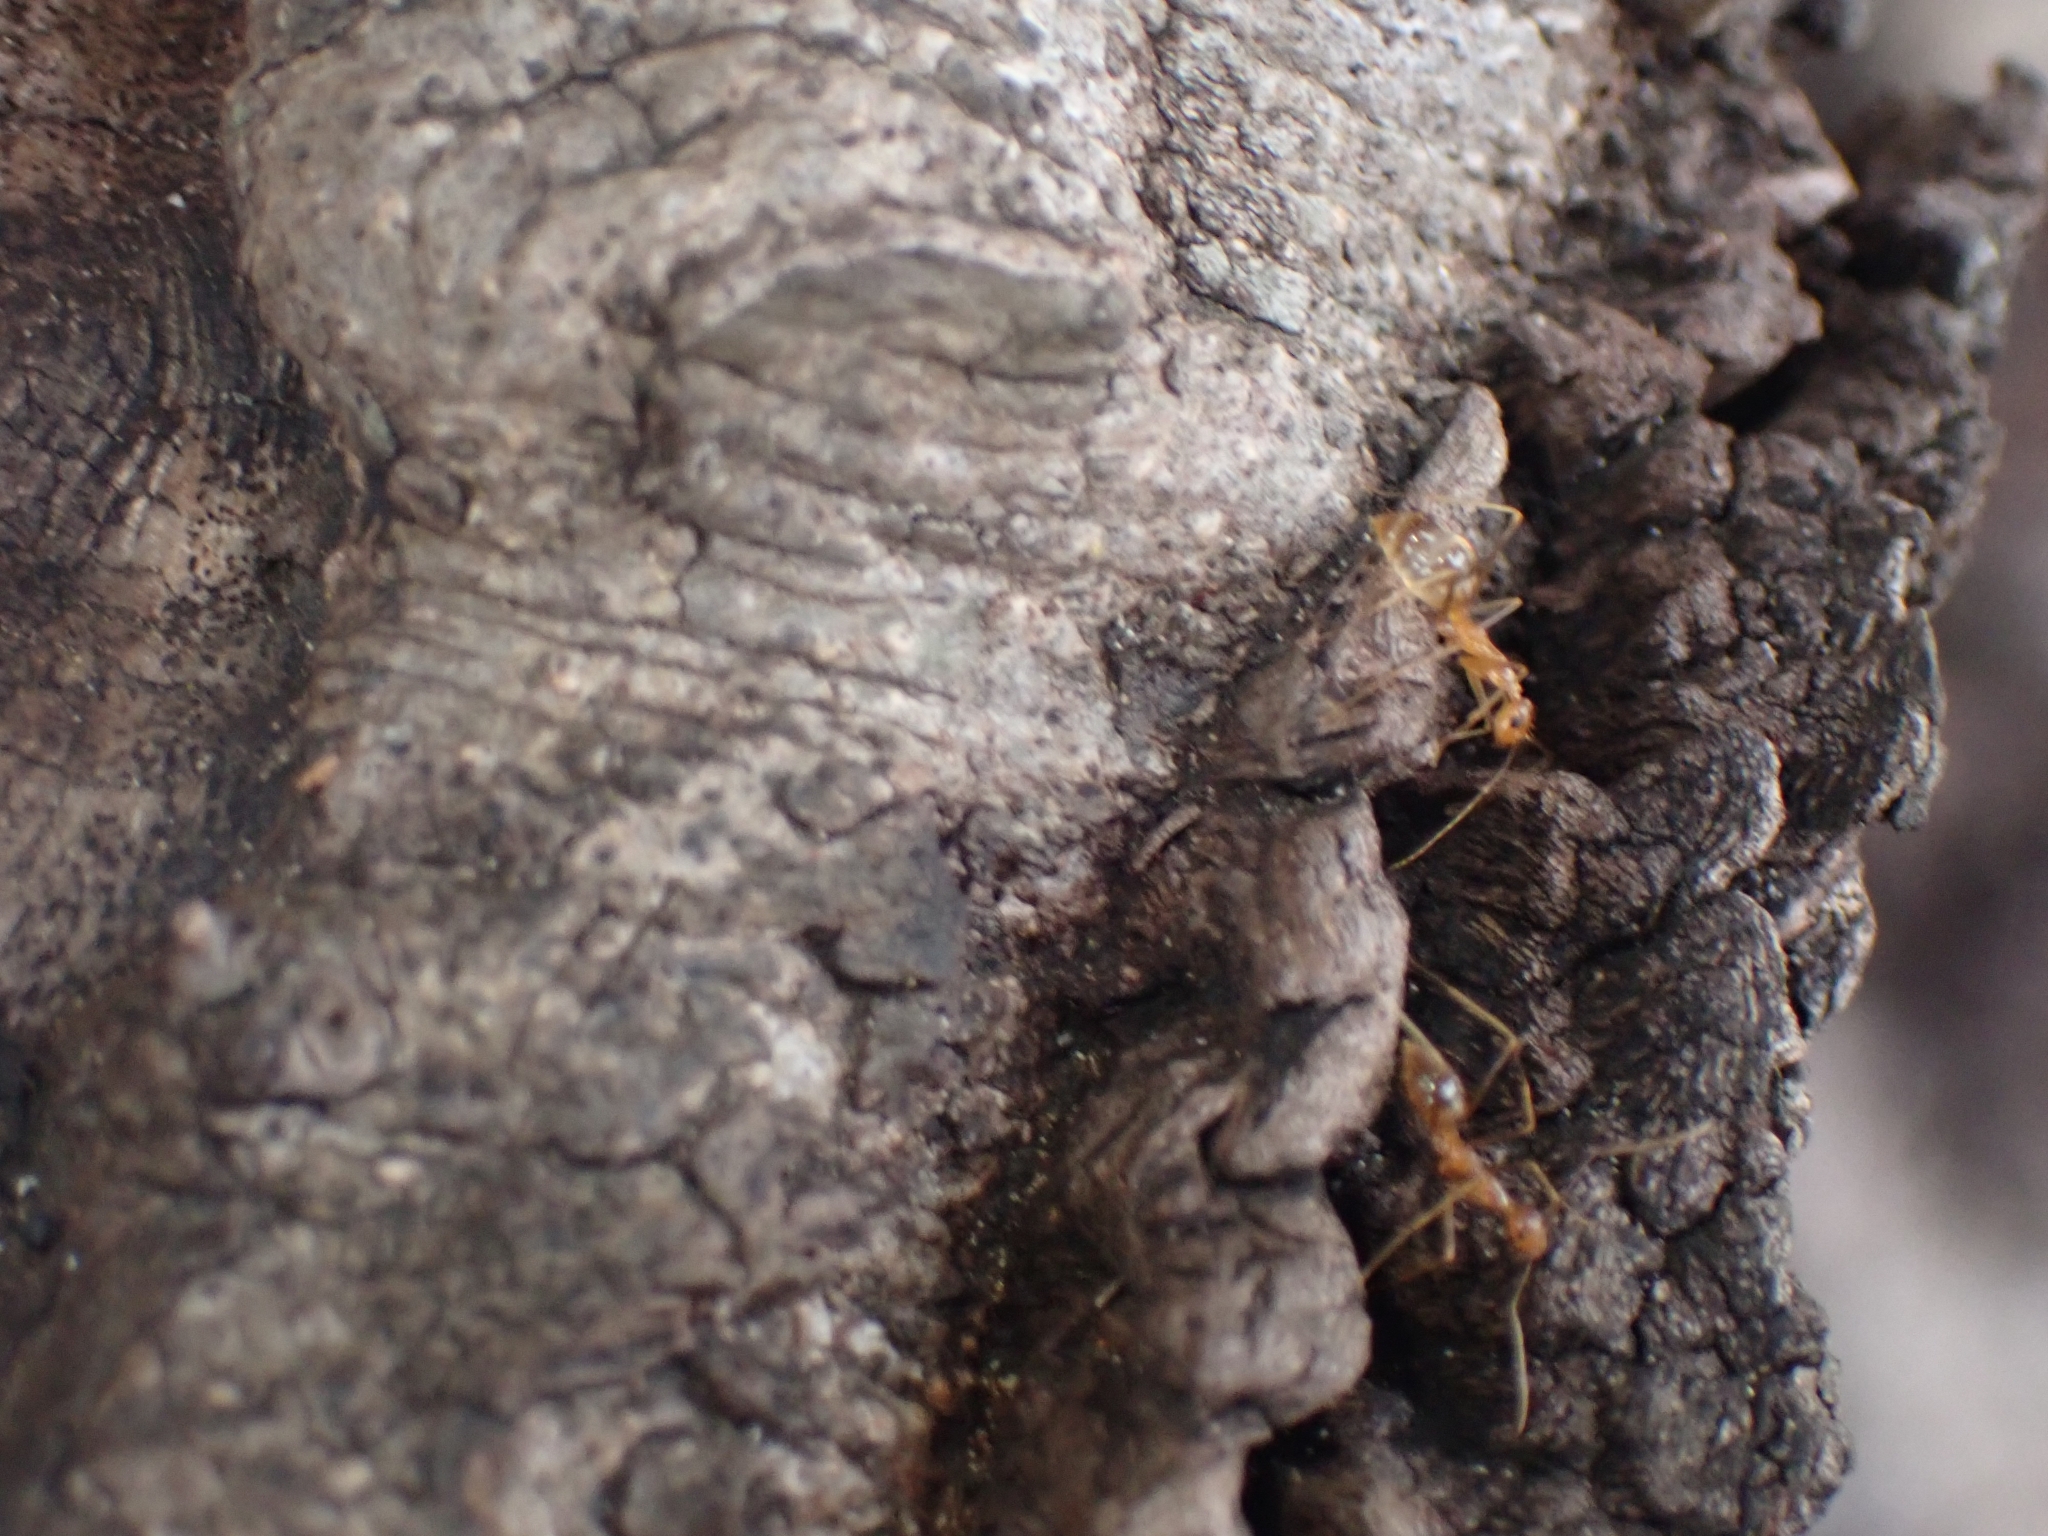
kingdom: Animalia
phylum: Arthropoda
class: Insecta
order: Hymenoptera
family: Formicidae
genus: Anoplolepis
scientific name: Anoplolepis gracilipes
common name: Ant
